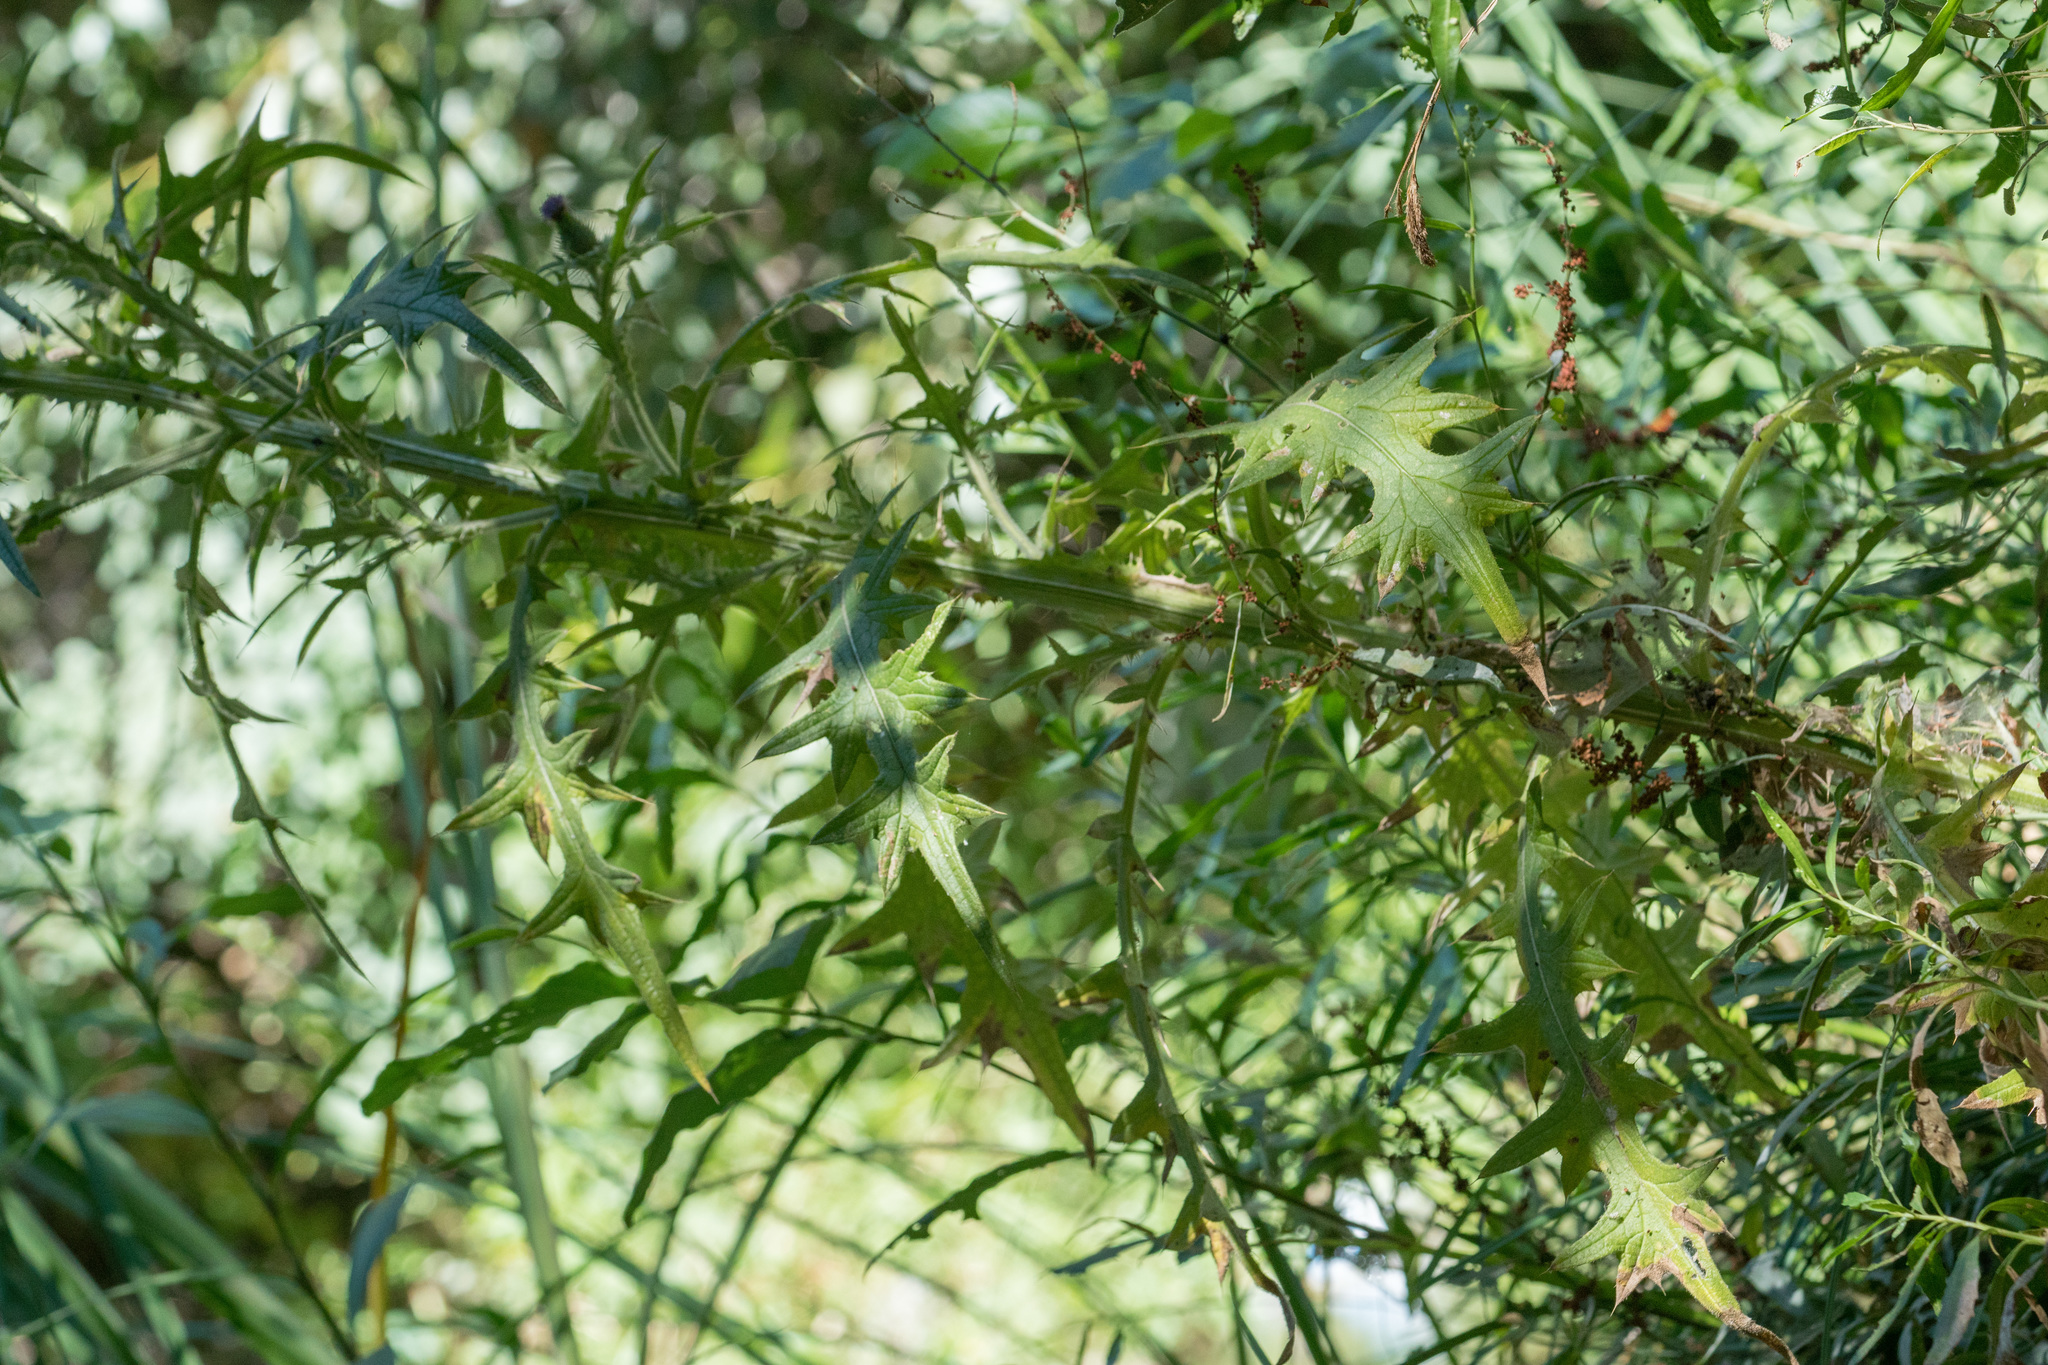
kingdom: Plantae
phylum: Tracheophyta
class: Magnoliopsida
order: Asterales
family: Asteraceae
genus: Cirsium
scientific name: Cirsium vulgare
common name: Bull thistle
